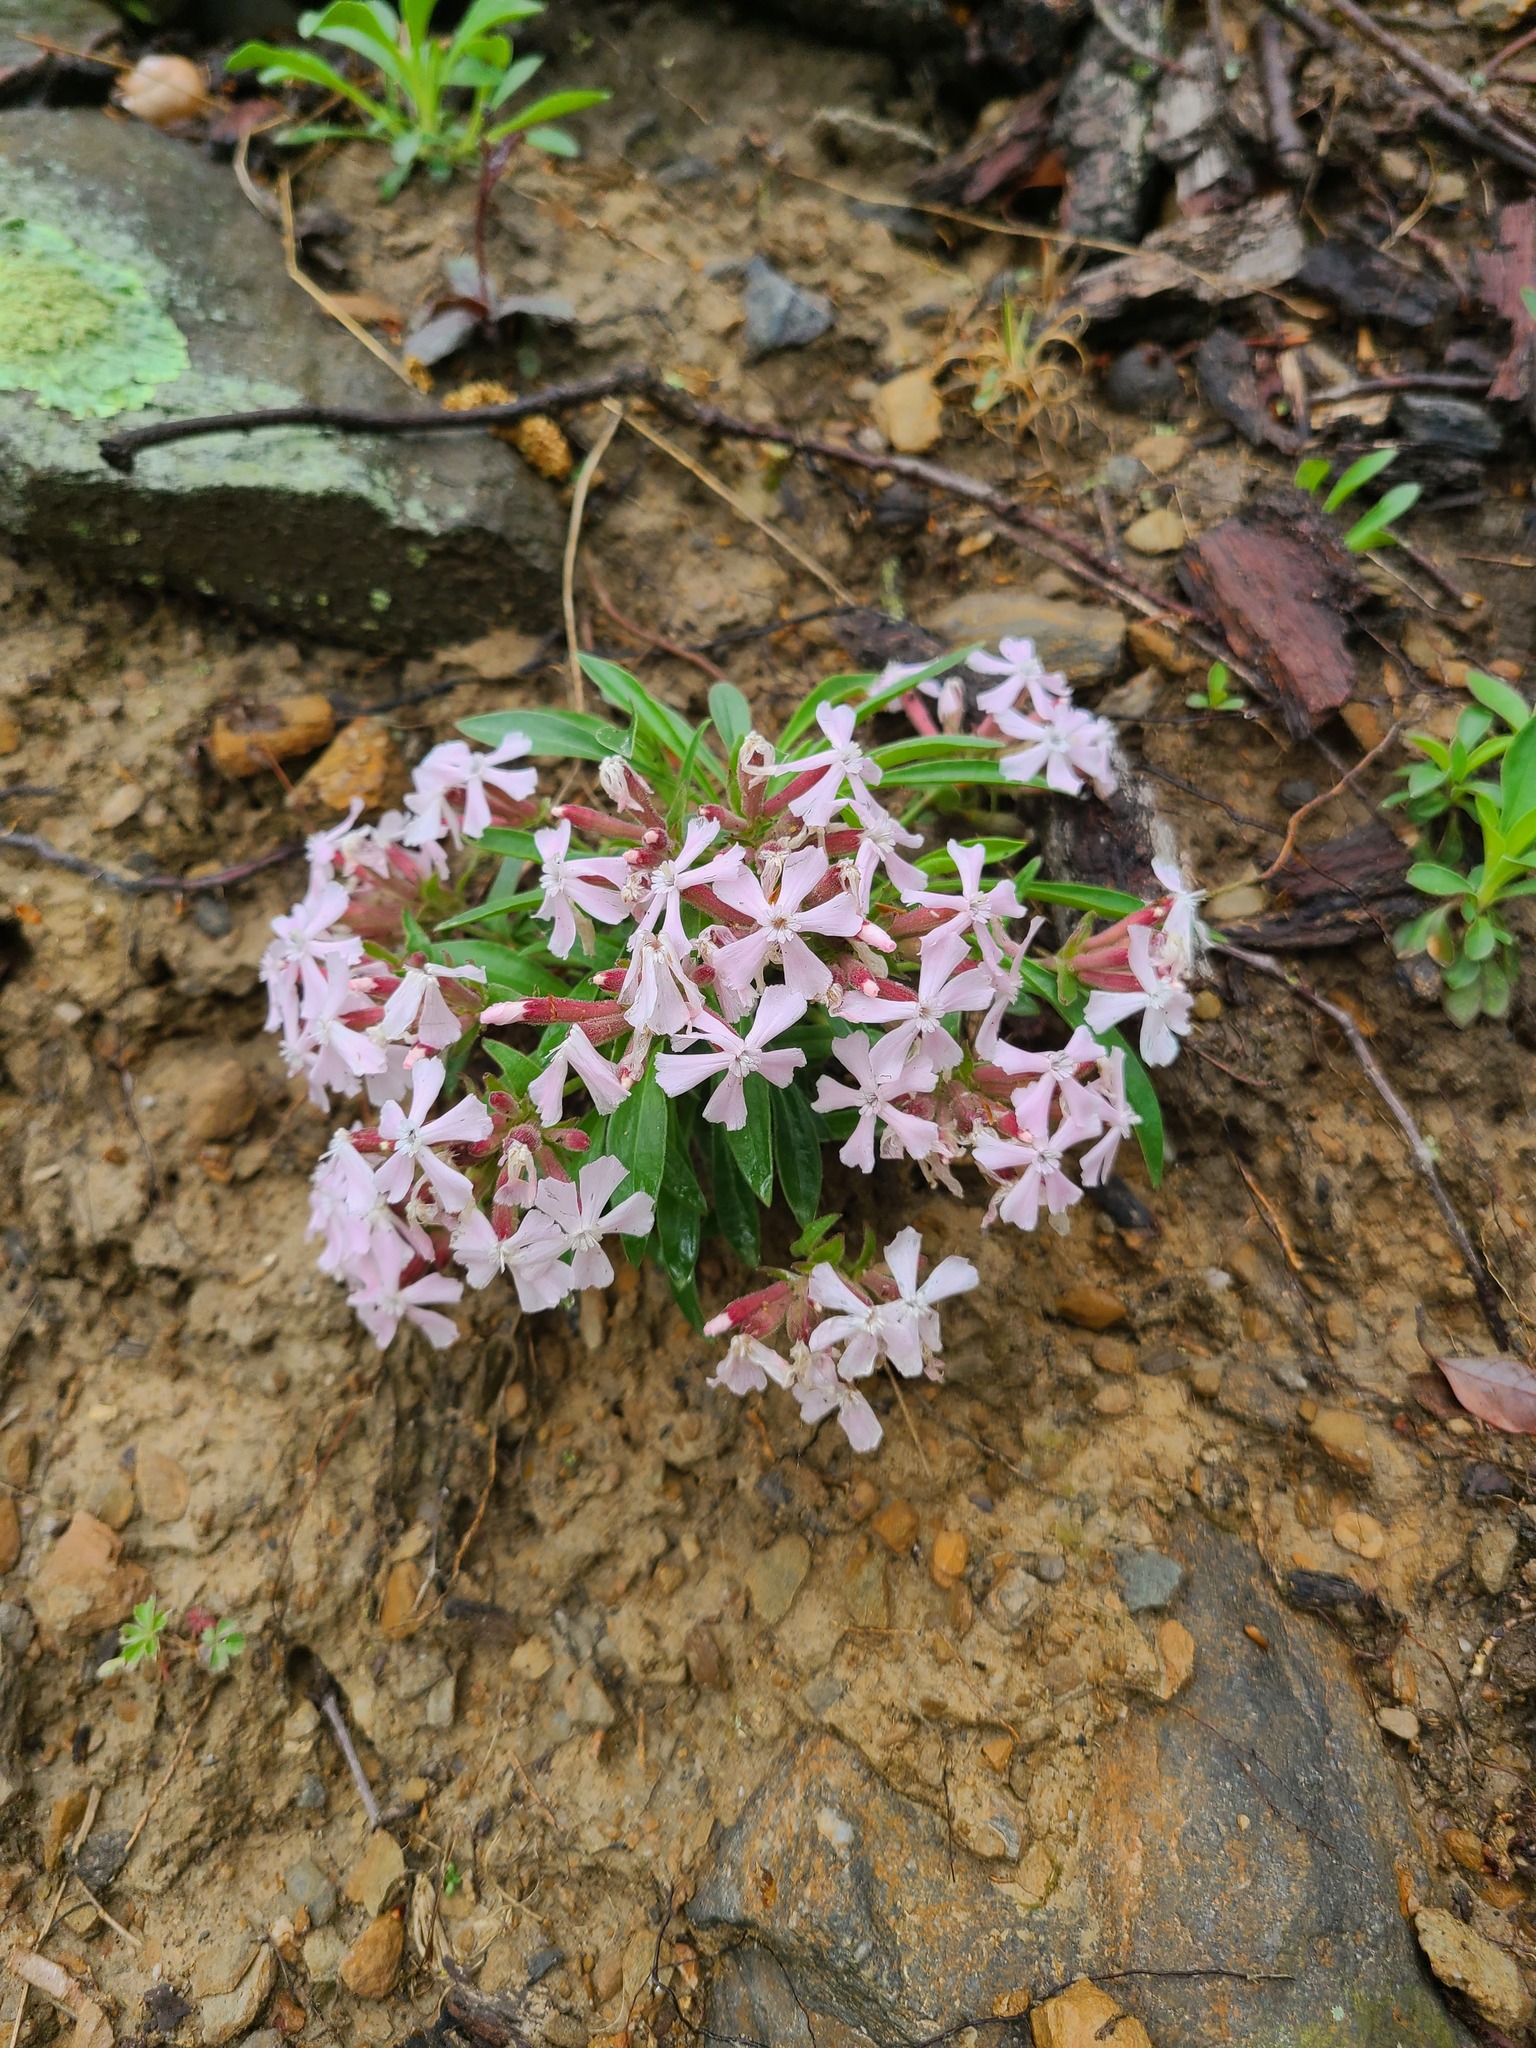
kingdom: Plantae
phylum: Tracheophyta
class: Magnoliopsida
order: Caryophyllales
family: Caryophyllaceae
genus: Silene
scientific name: Silene caroliniana
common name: Sticky catchfly
